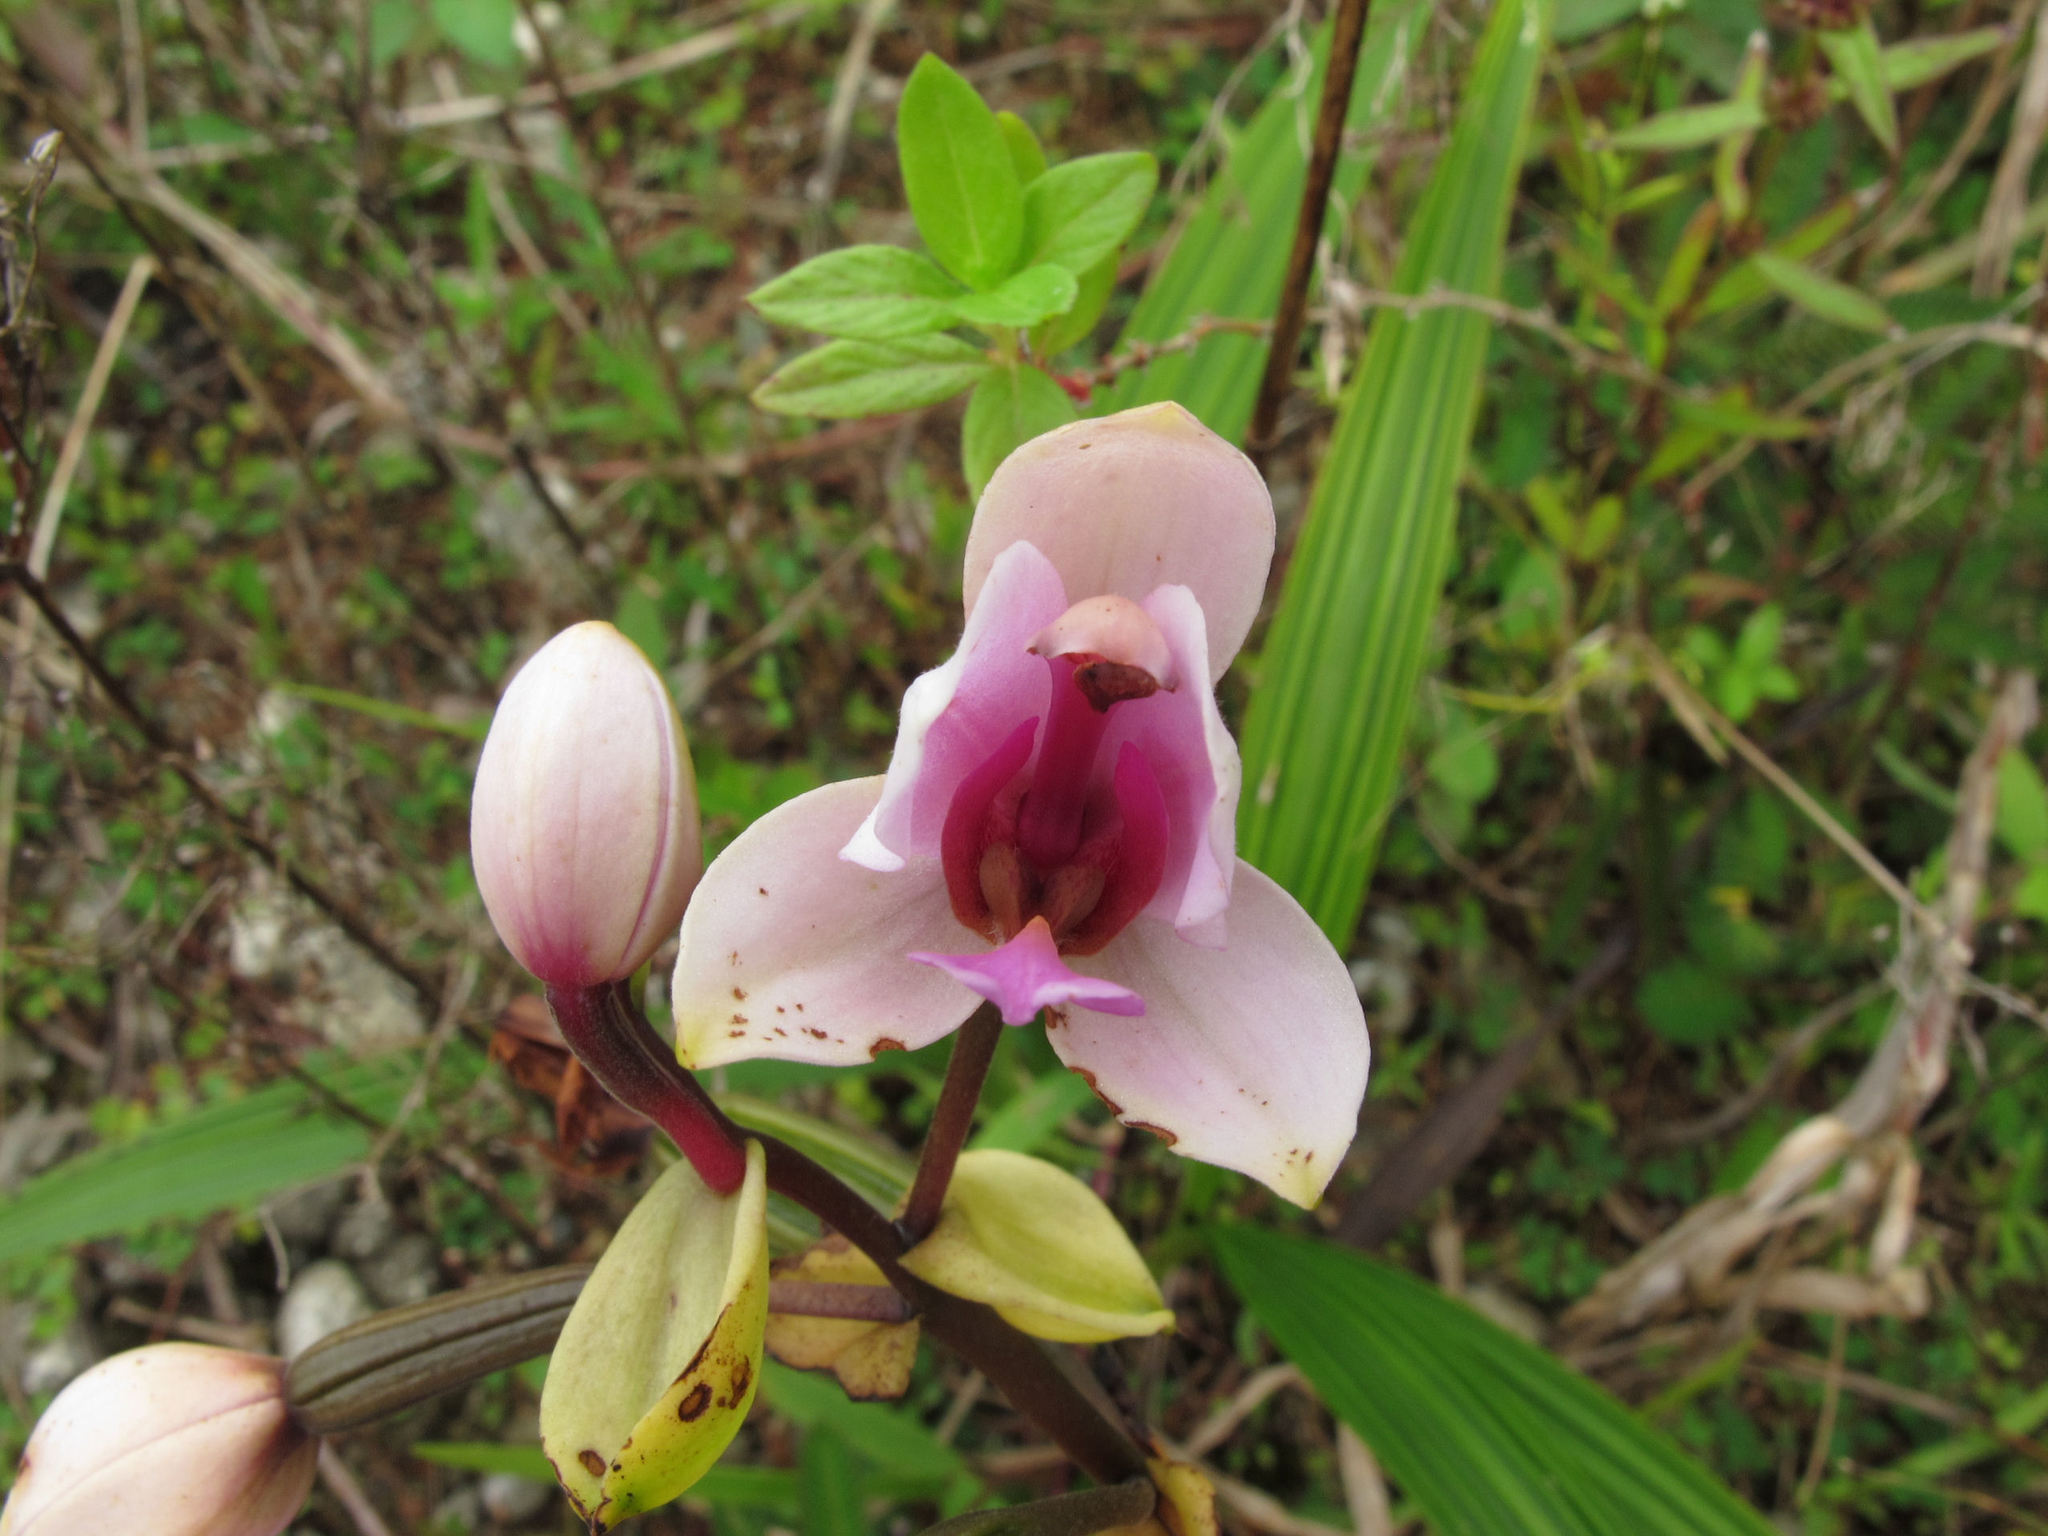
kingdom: Plantae
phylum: Tracheophyta
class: Liliopsida
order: Asparagales
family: Orchidaceae
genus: Spathoglottis
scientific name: Spathoglottis plicata
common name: Philippine ground orchid
